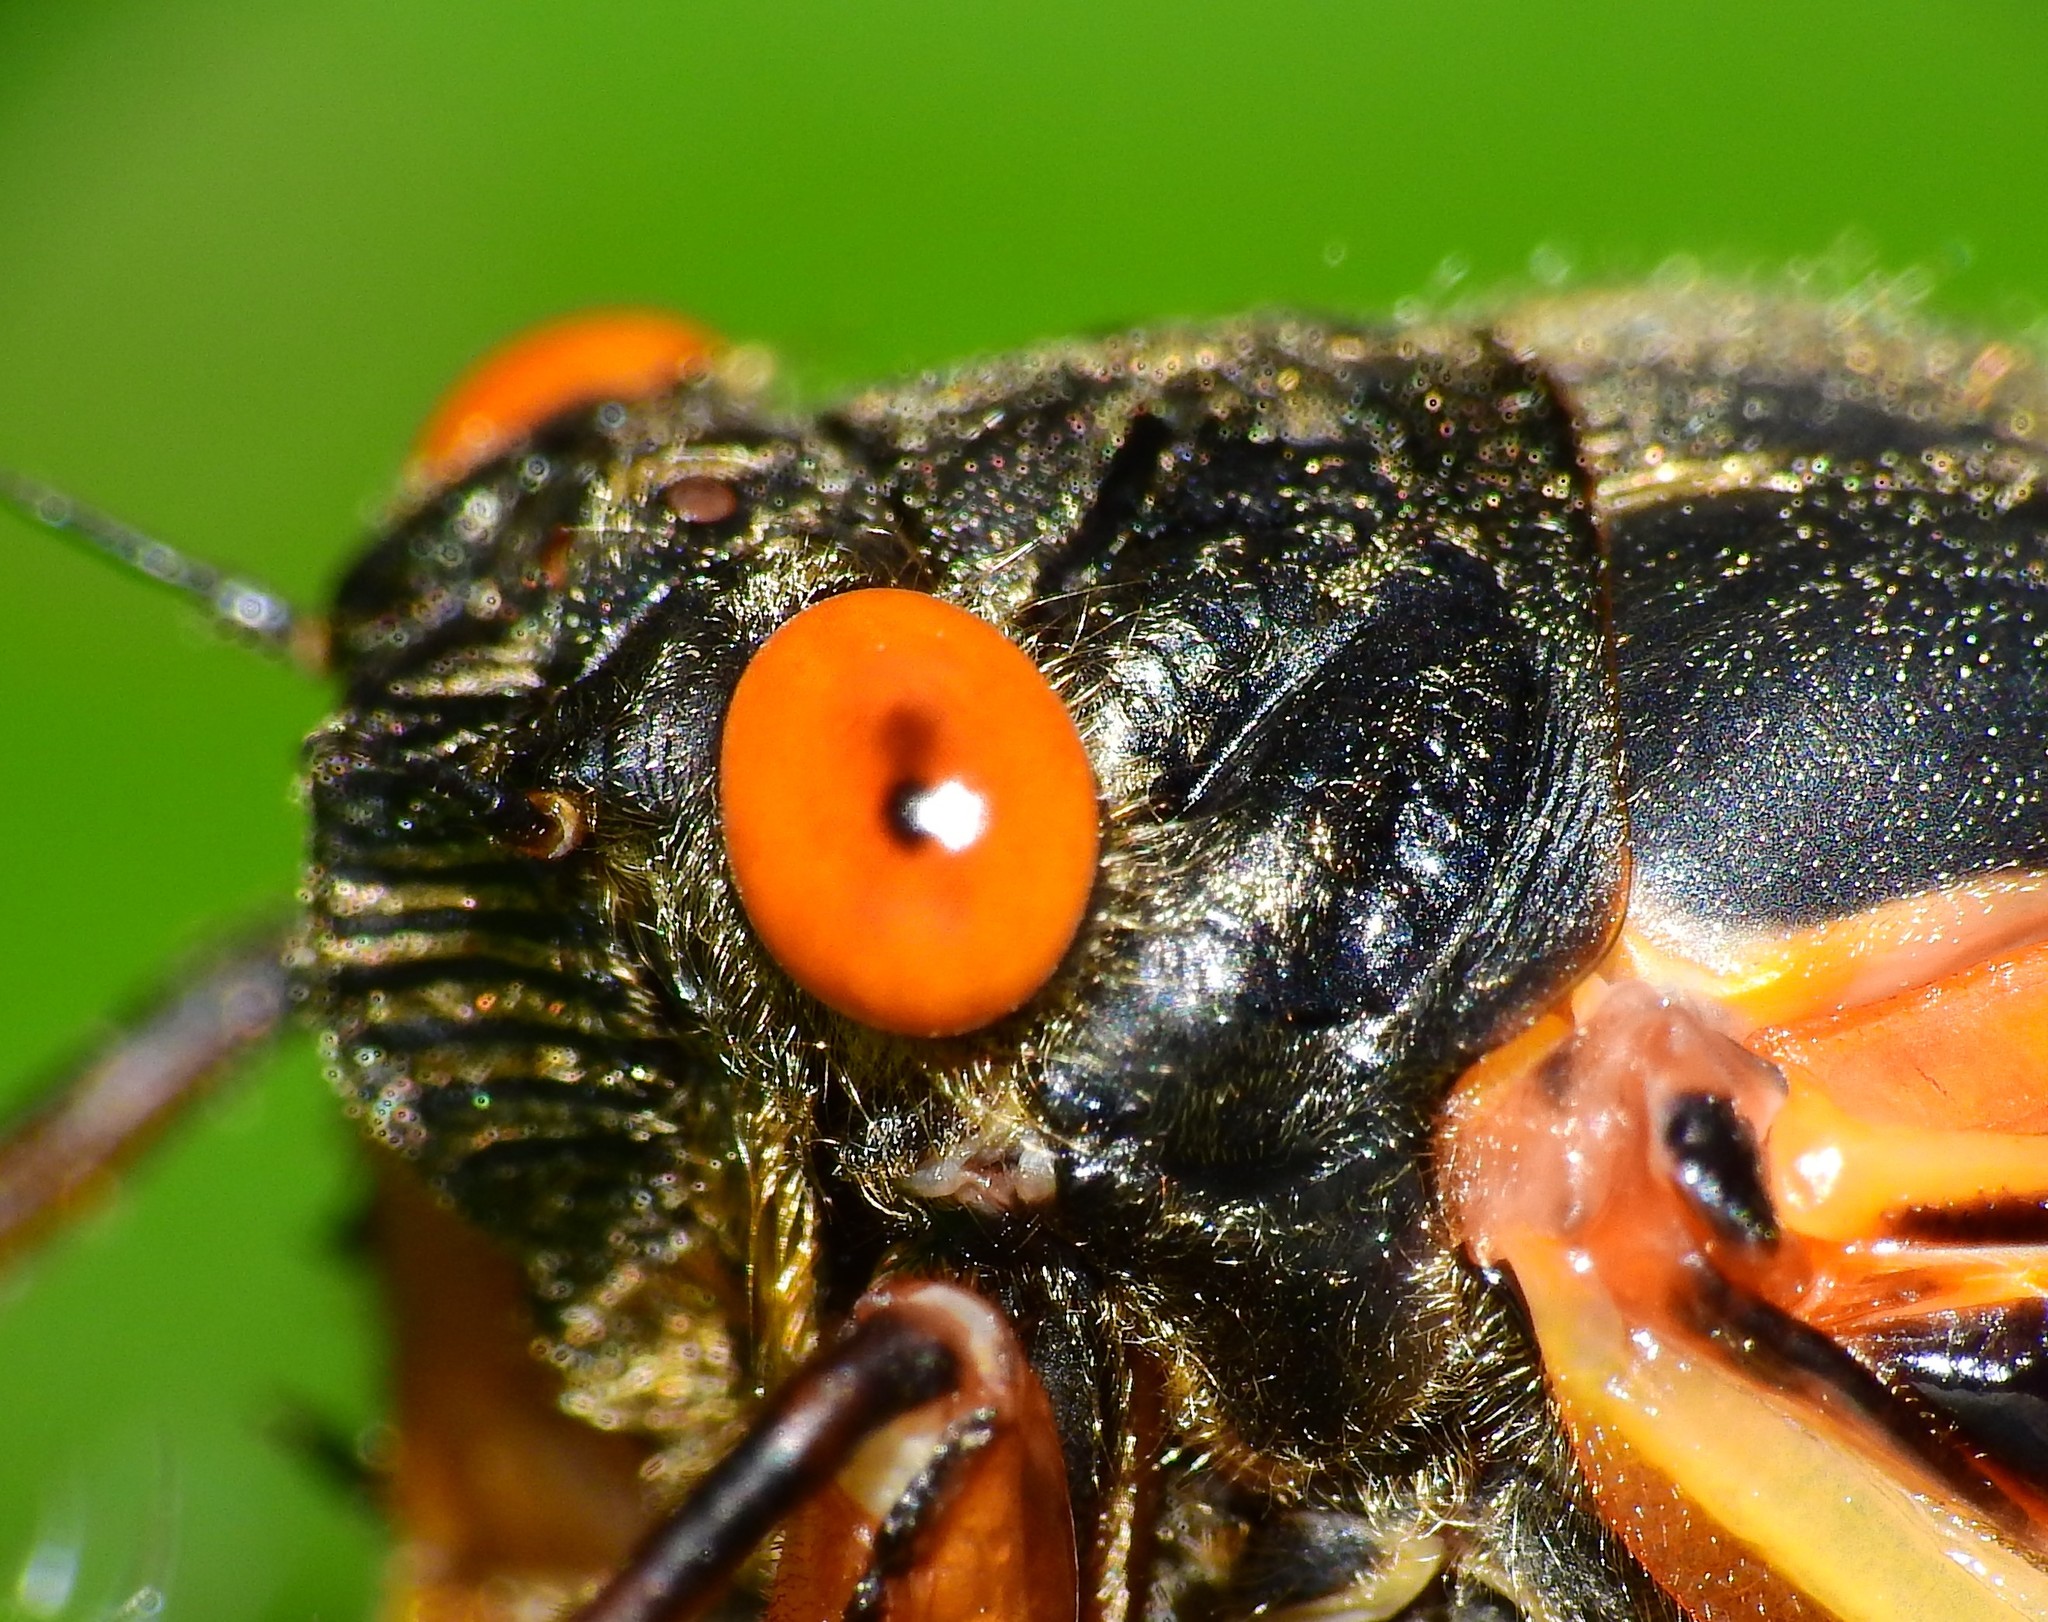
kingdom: Animalia
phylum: Arthropoda
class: Insecta
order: Hemiptera
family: Cicadidae
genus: Magicicada
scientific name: Magicicada cassini
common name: Cassin's 17-year cicada
